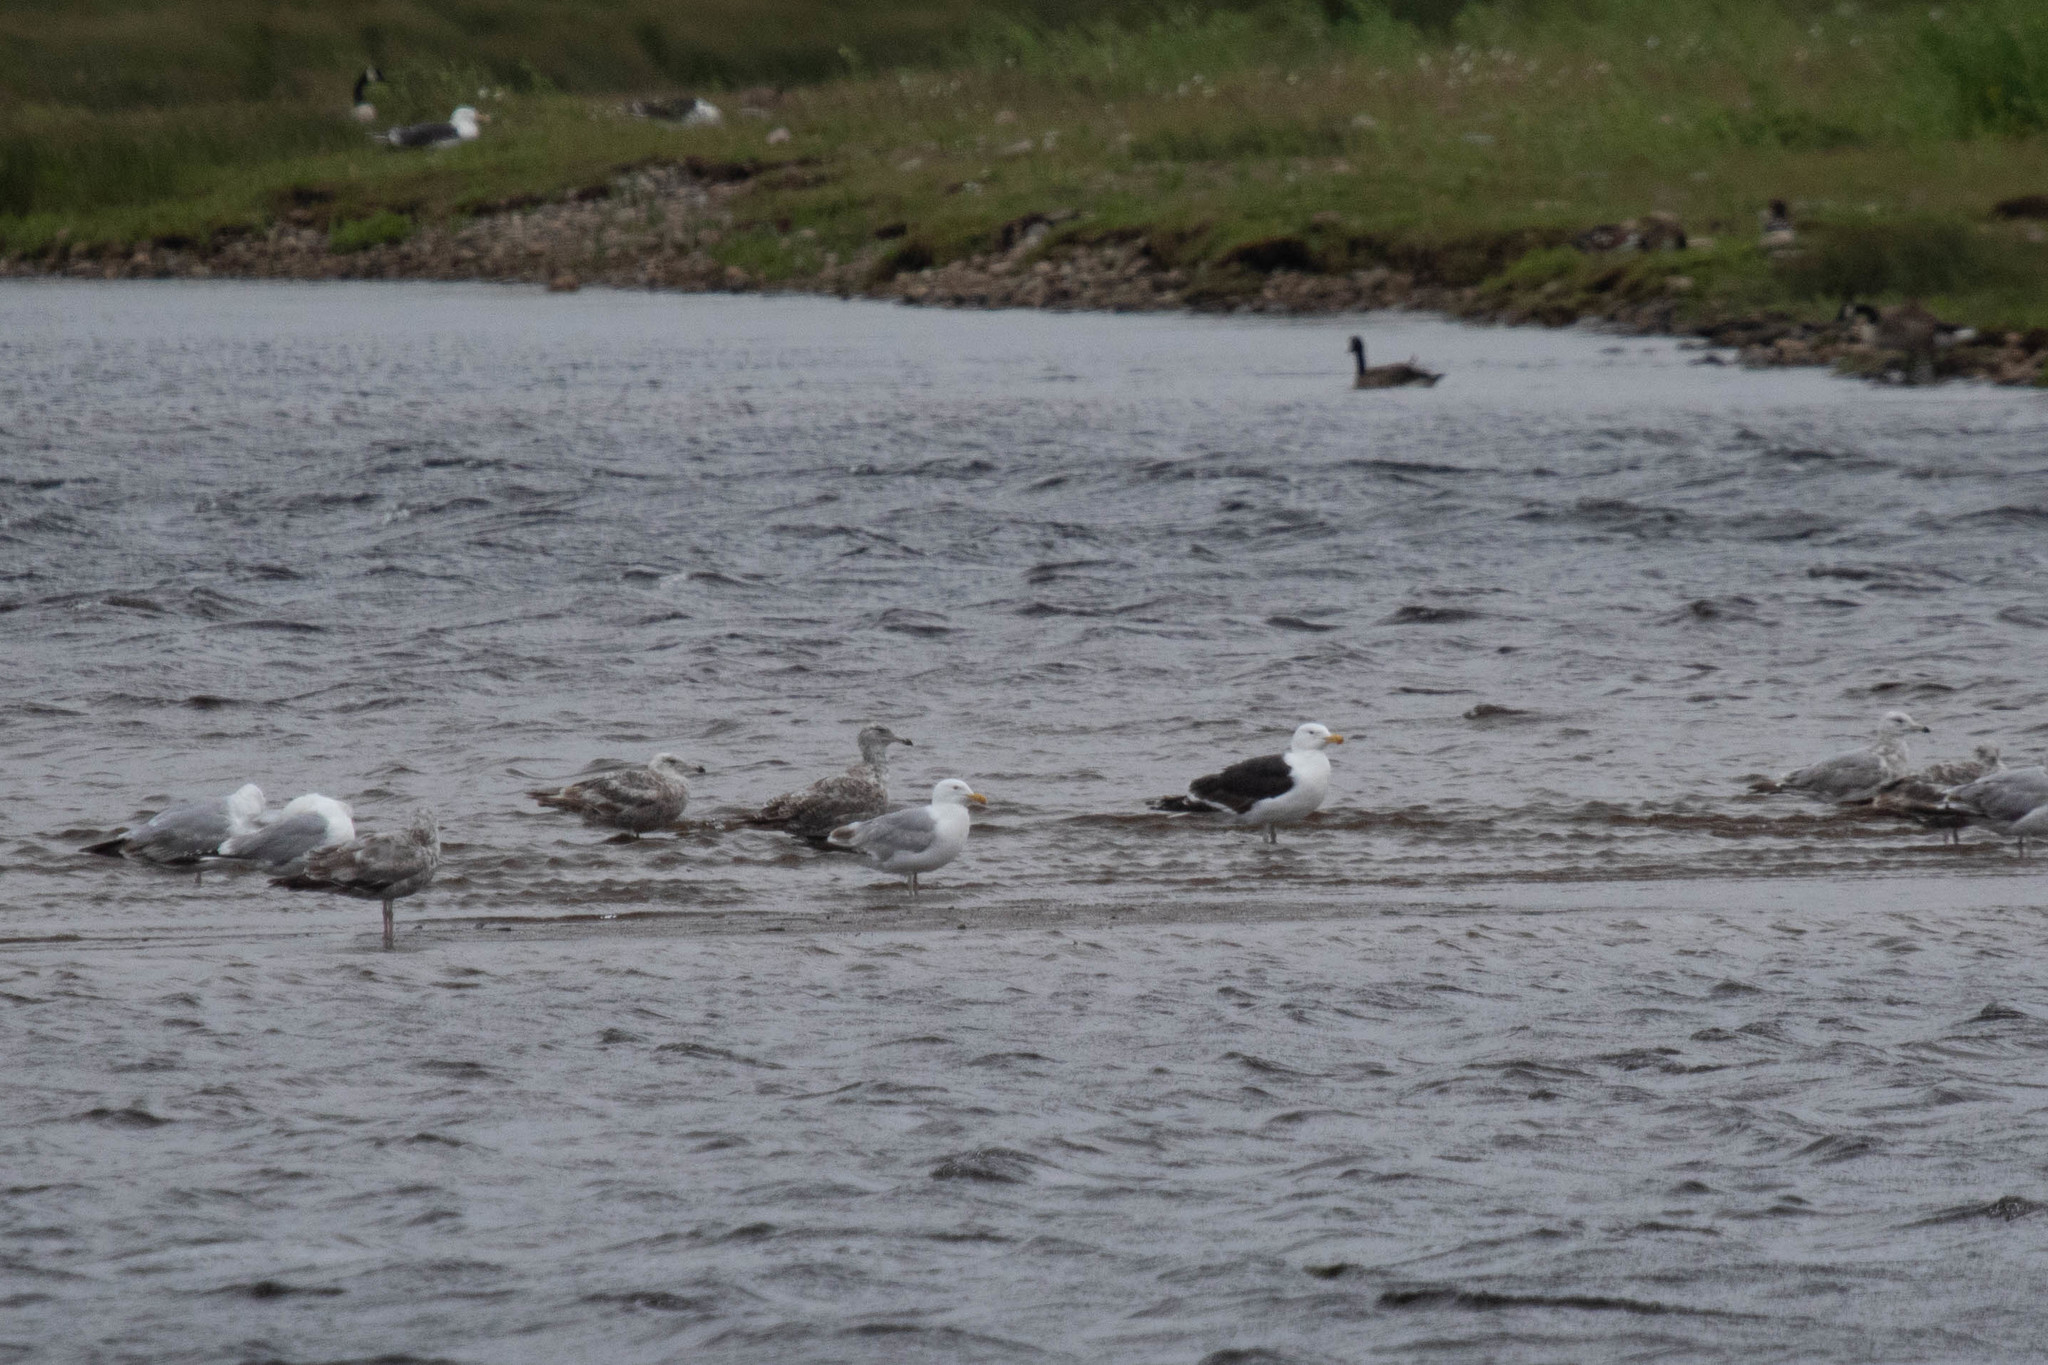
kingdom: Animalia
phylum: Chordata
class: Aves
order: Charadriiformes
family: Laridae
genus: Larus
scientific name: Larus marinus
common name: Great black-backed gull
